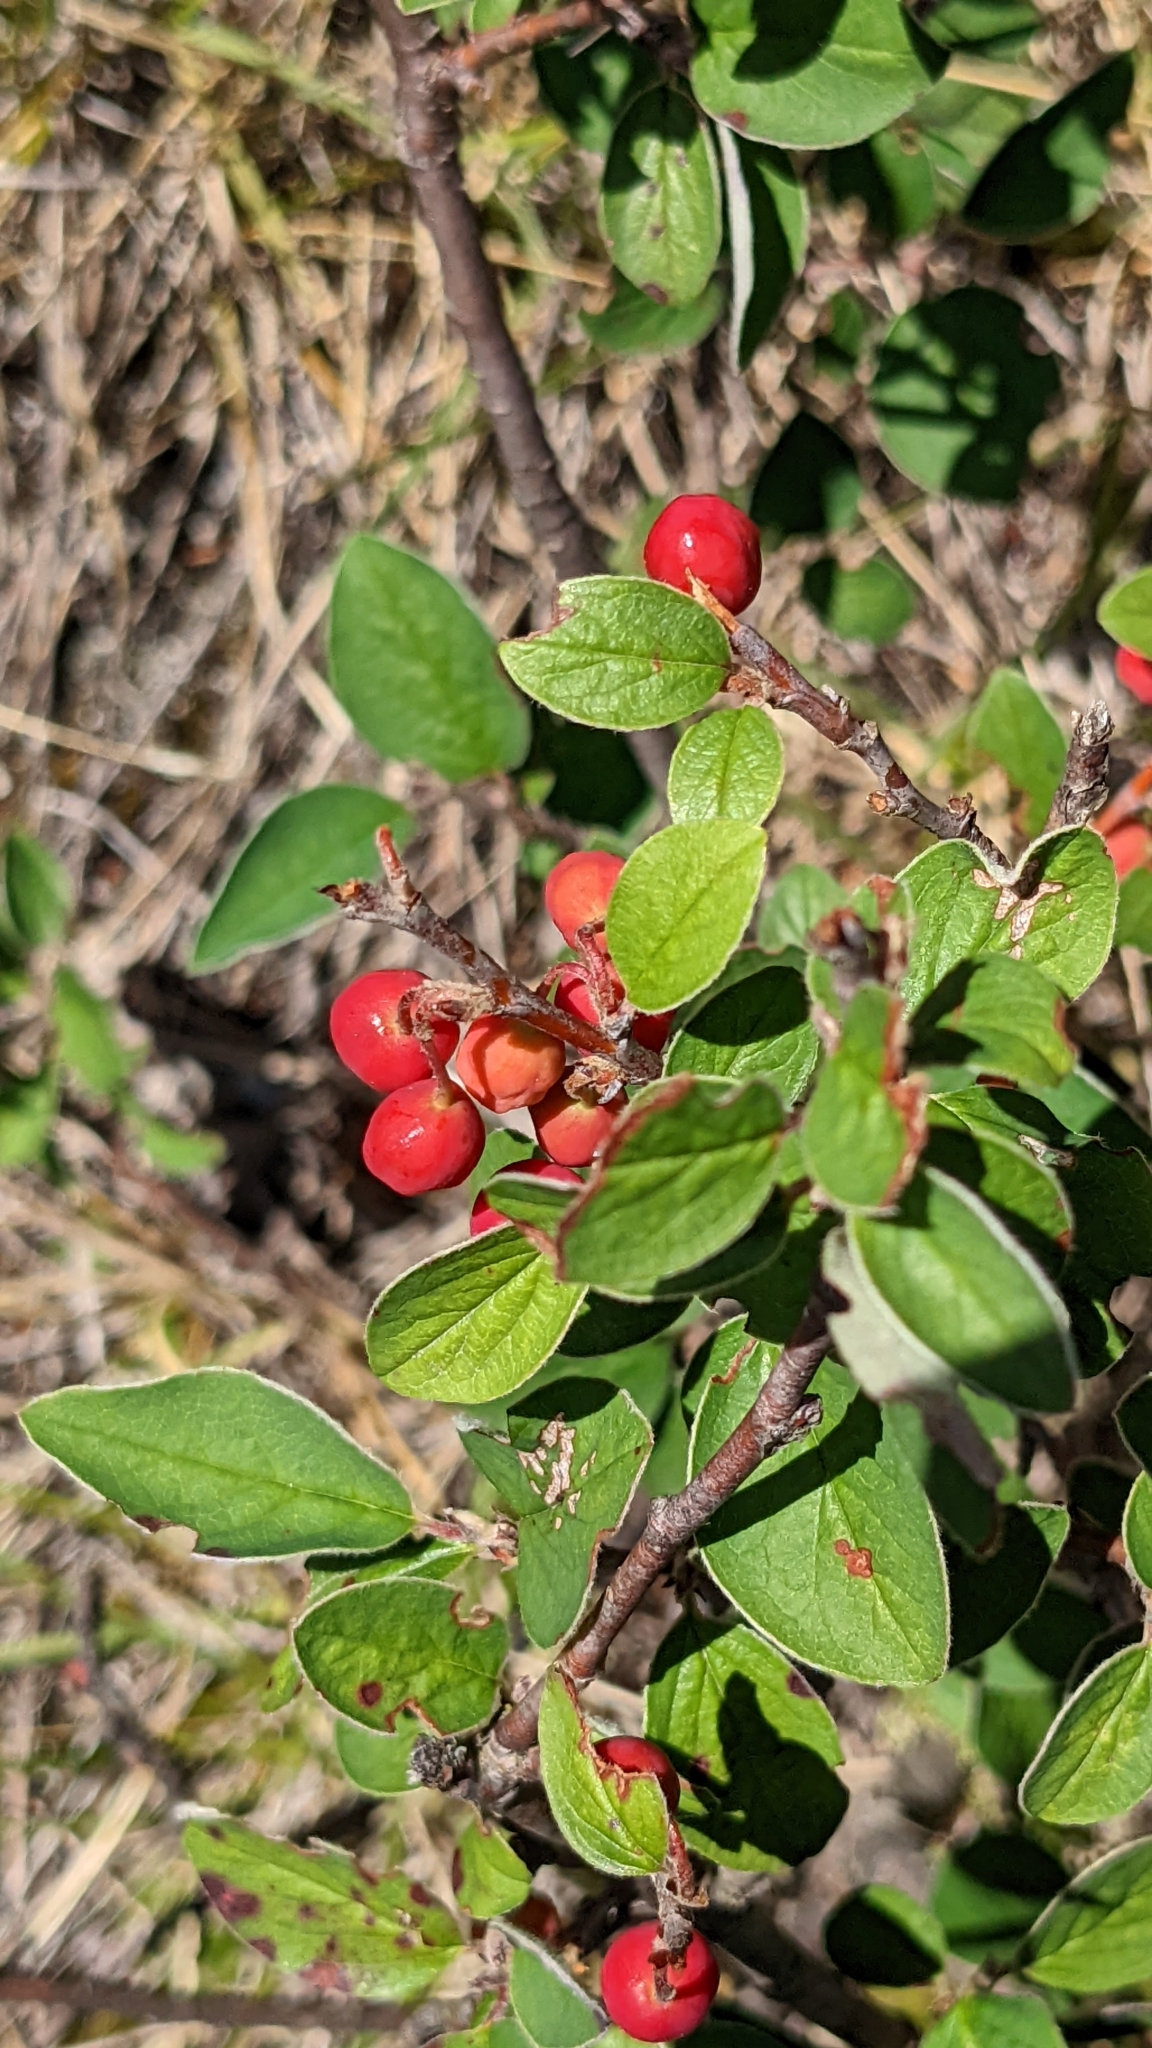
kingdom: Plantae
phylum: Tracheophyta
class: Magnoliopsida
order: Rosales
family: Rosaceae
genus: Cotoneaster
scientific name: Cotoneaster integerrimus
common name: Wild cotoneaster
